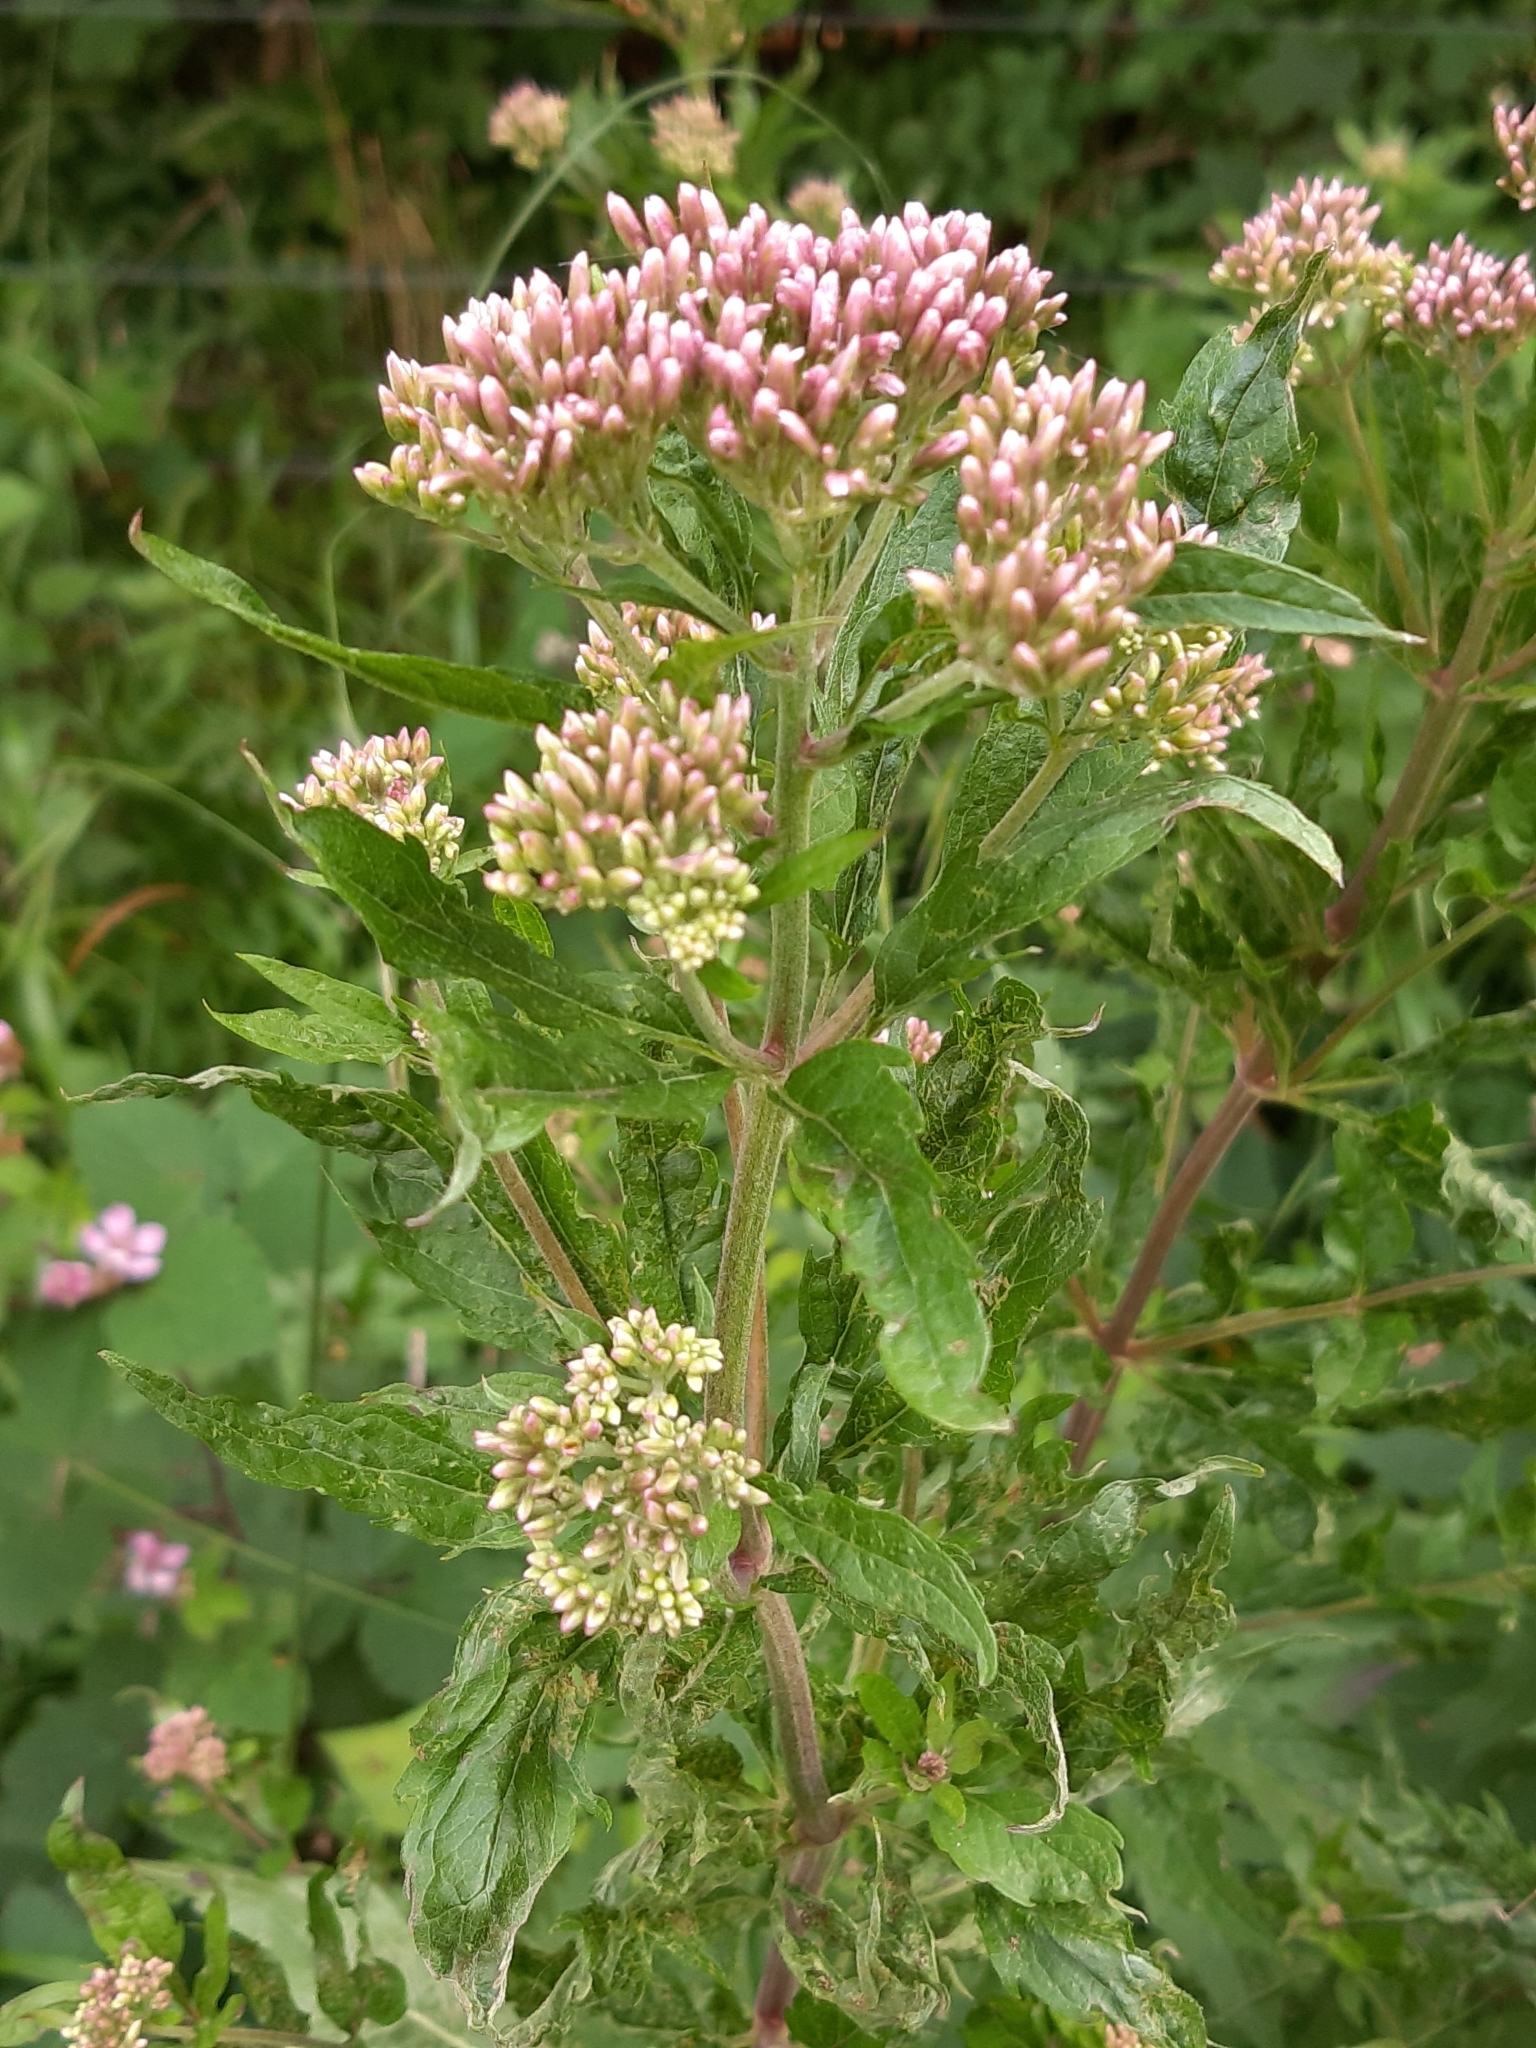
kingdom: Plantae
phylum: Tracheophyta
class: Magnoliopsida
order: Asterales
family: Asteraceae
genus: Eupatorium
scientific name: Eupatorium cannabinum
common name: Hemp-agrimony
